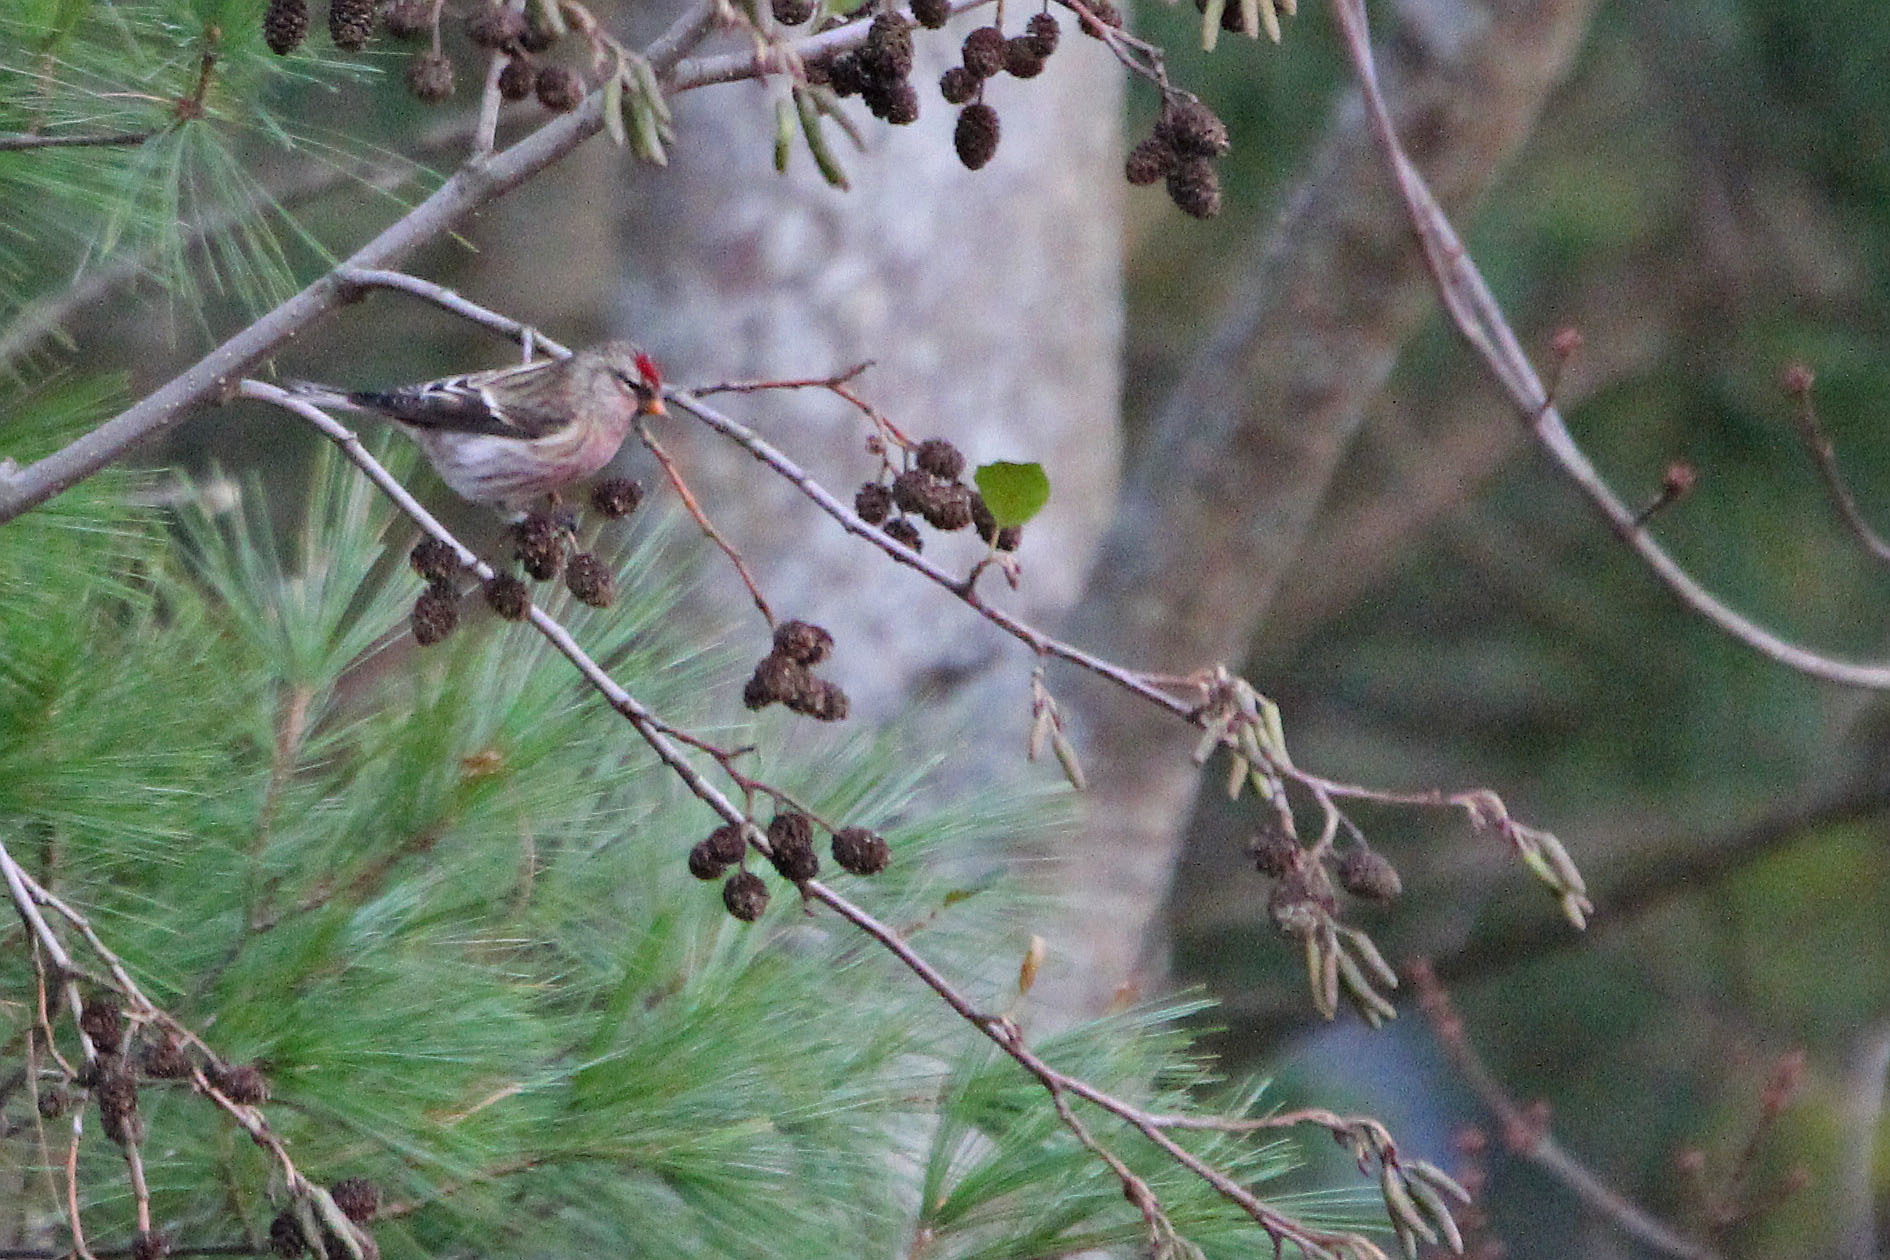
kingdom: Animalia
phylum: Chordata
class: Aves
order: Passeriformes
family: Fringillidae
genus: Acanthis
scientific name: Acanthis flammea
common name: Common redpoll
